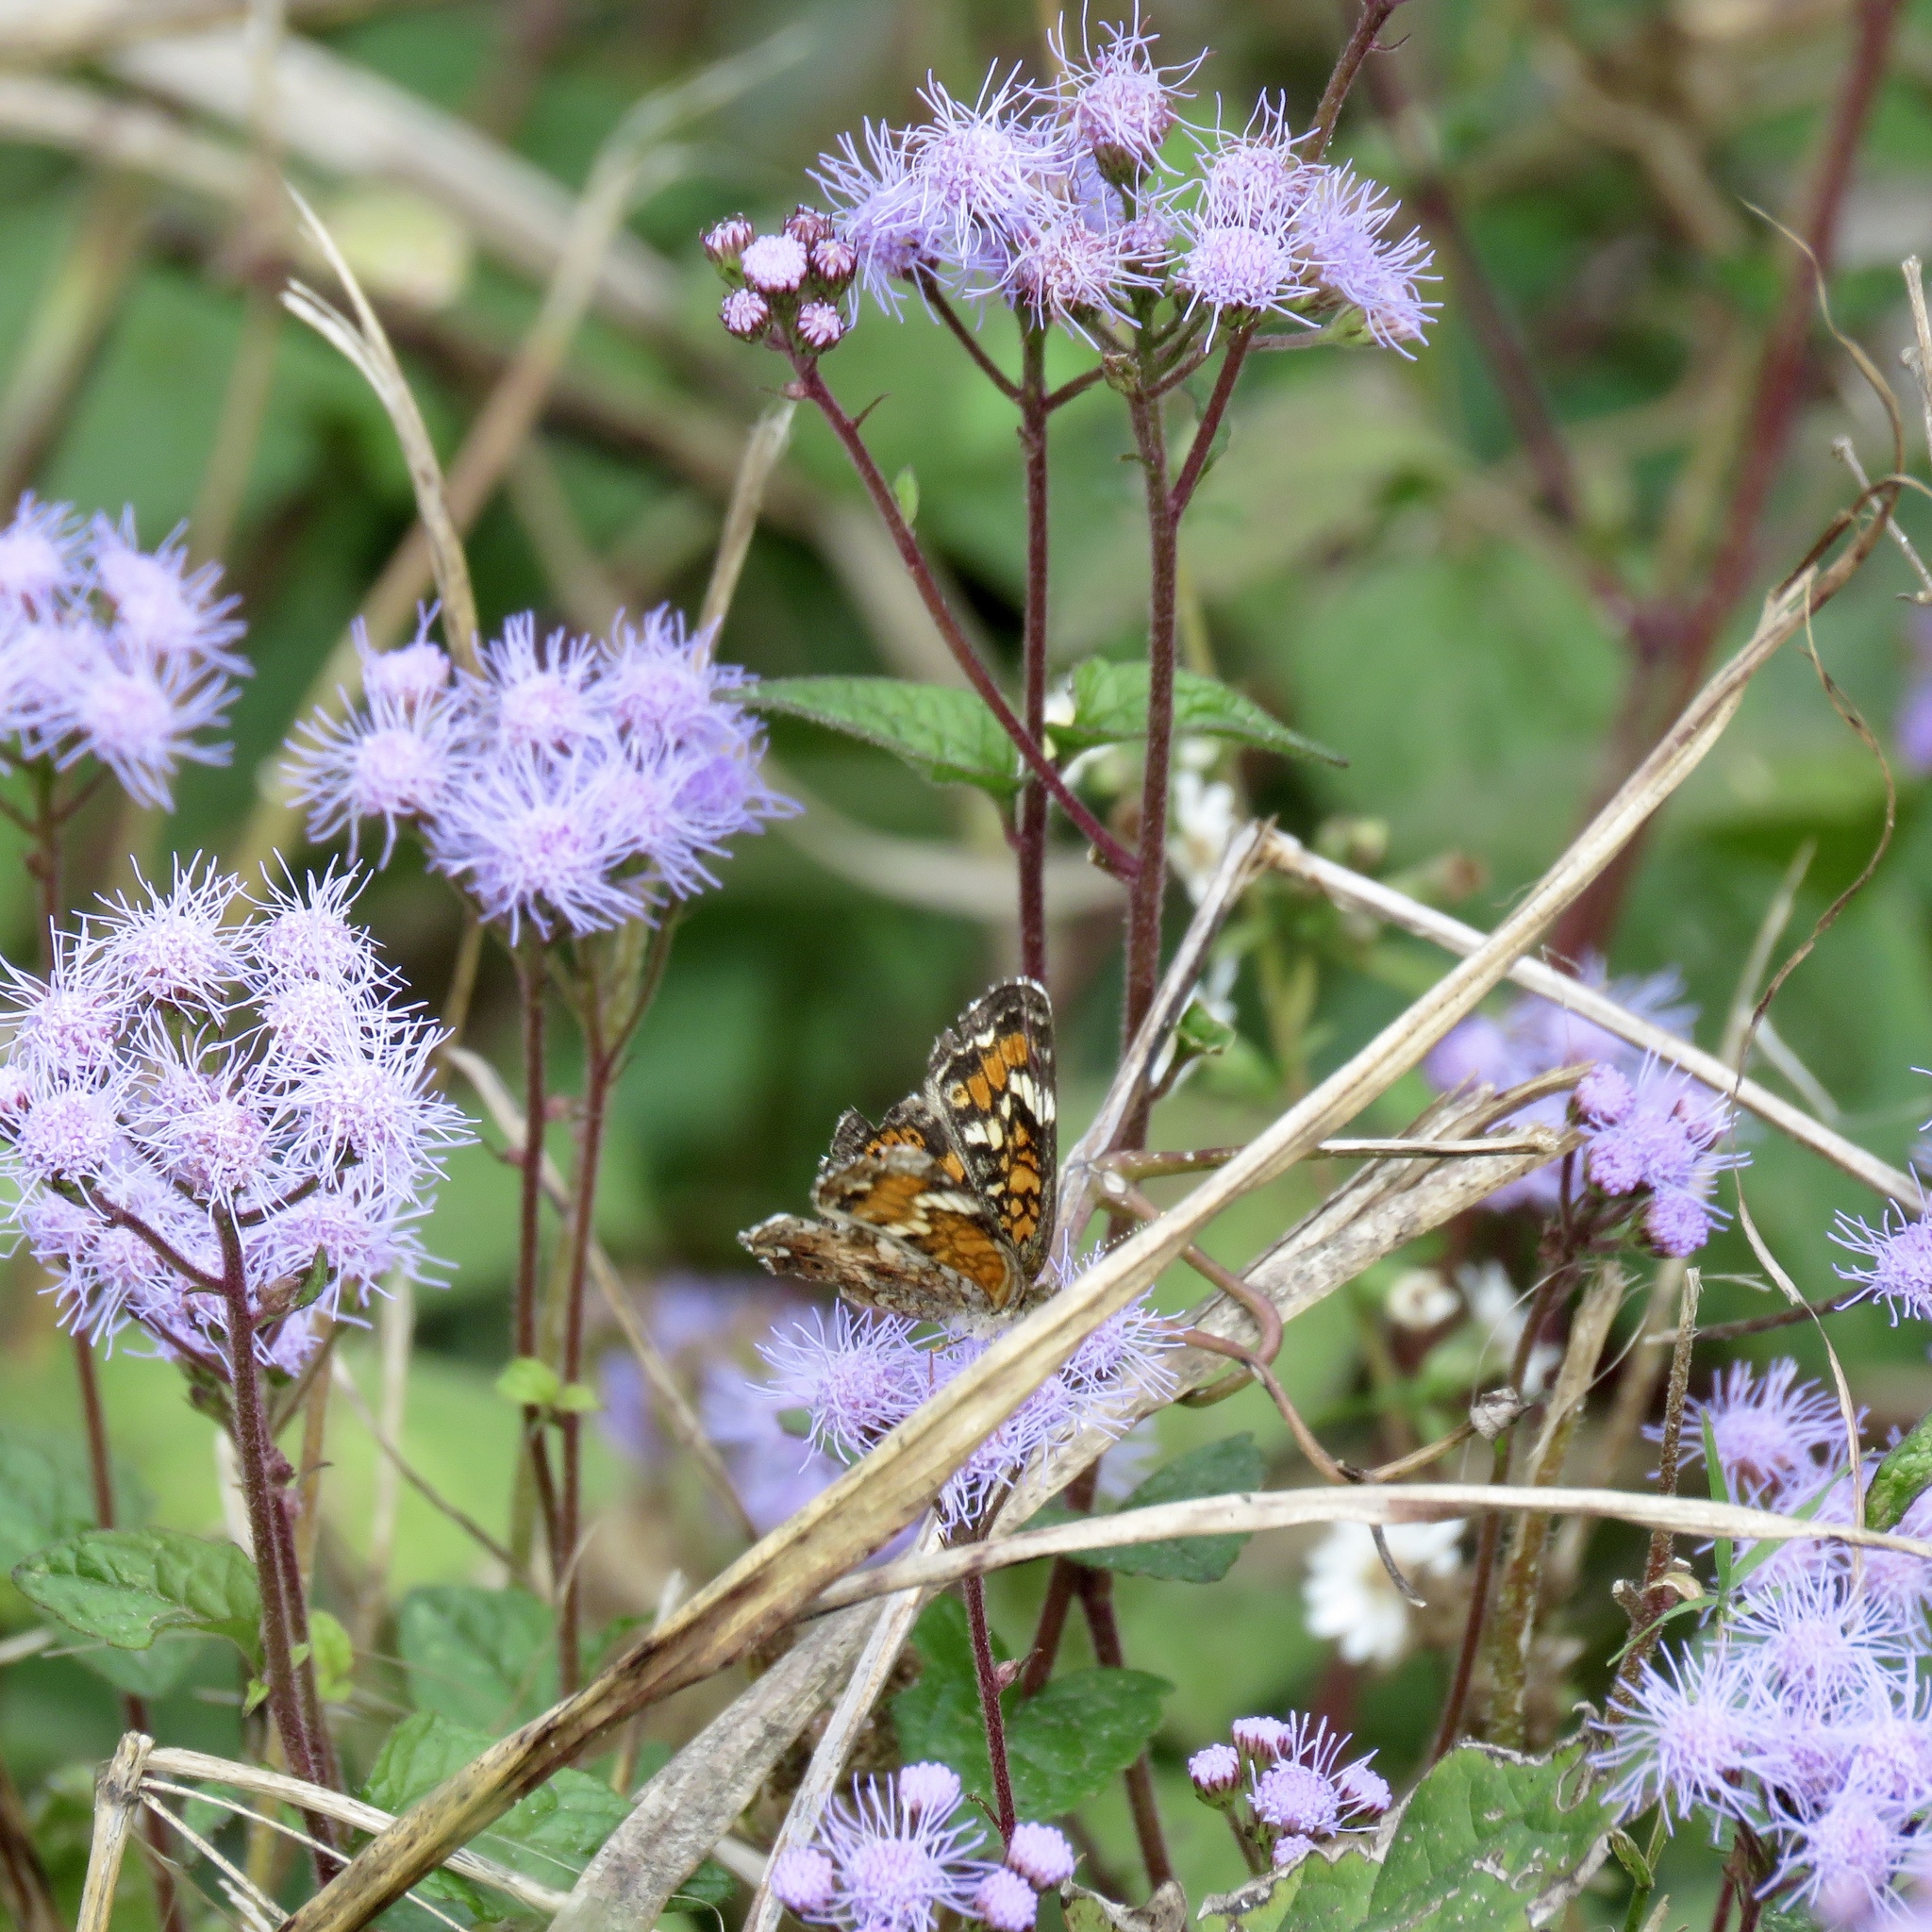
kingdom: Animalia
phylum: Arthropoda
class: Insecta
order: Lepidoptera
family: Nymphalidae
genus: Phyciodes
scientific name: Phyciodes phaon
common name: Phaon crescent
